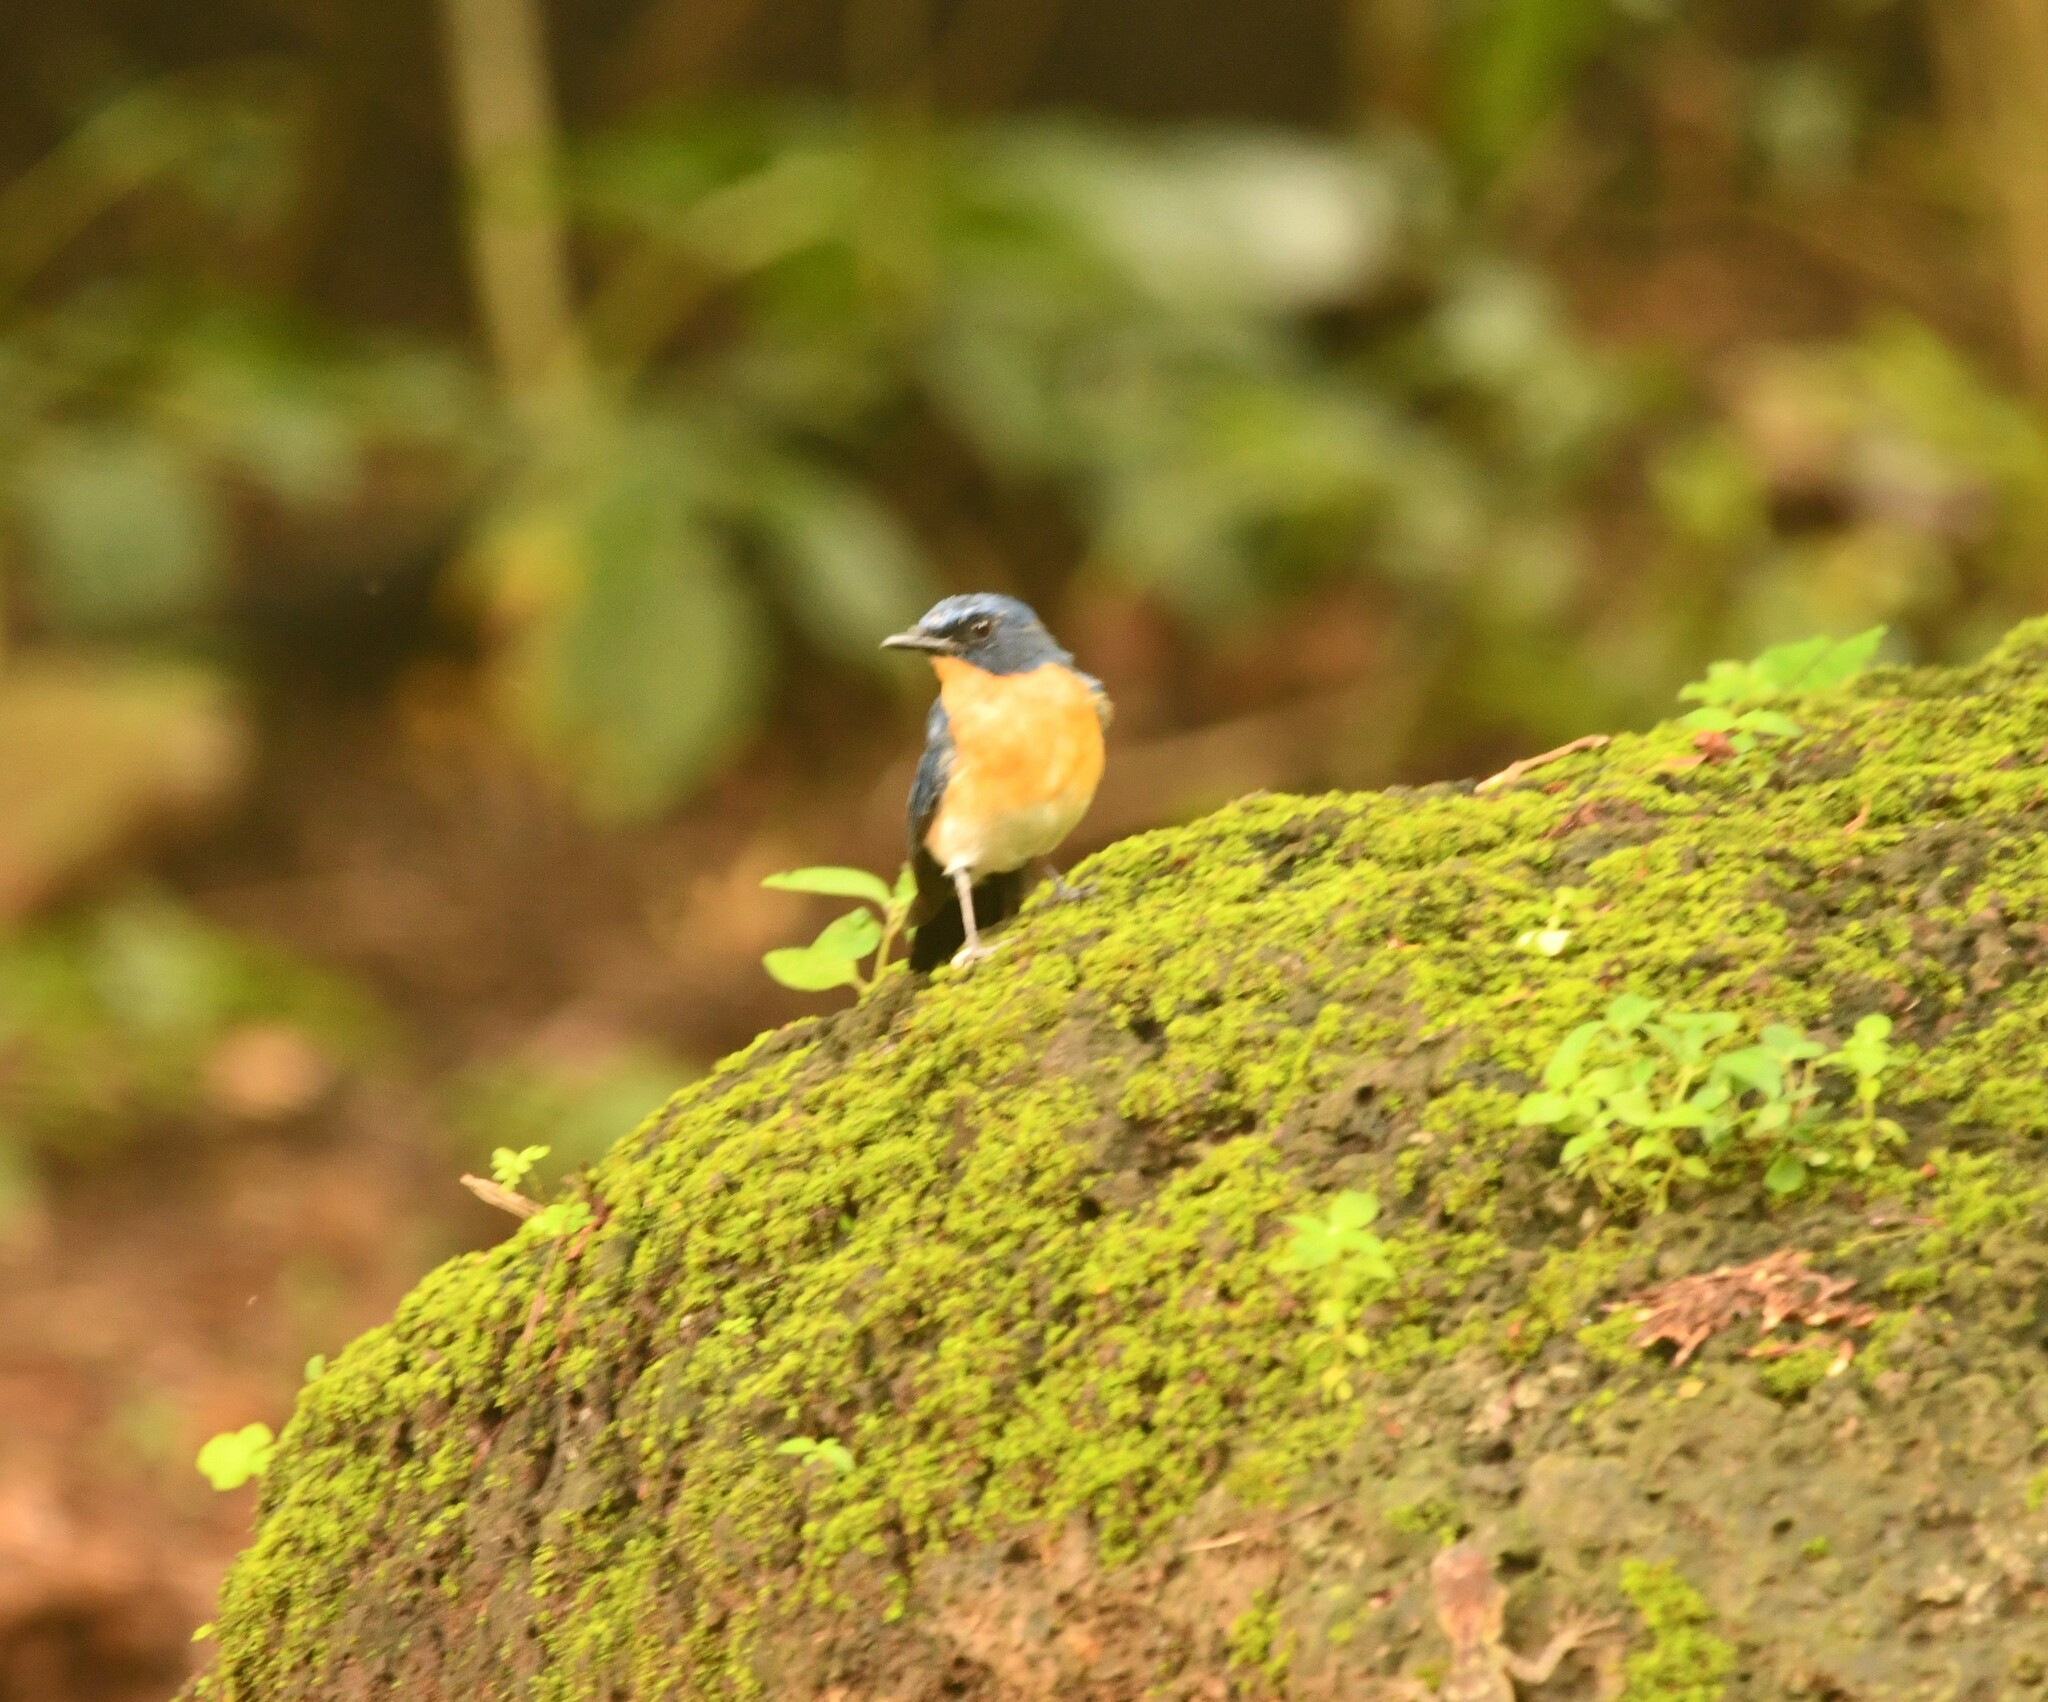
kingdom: Animalia
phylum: Chordata
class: Aves
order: Passeriformes
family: Muscicapidae
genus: Cyornis
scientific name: Cyornis tickelliae
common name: Tickell's blue flycatcher
